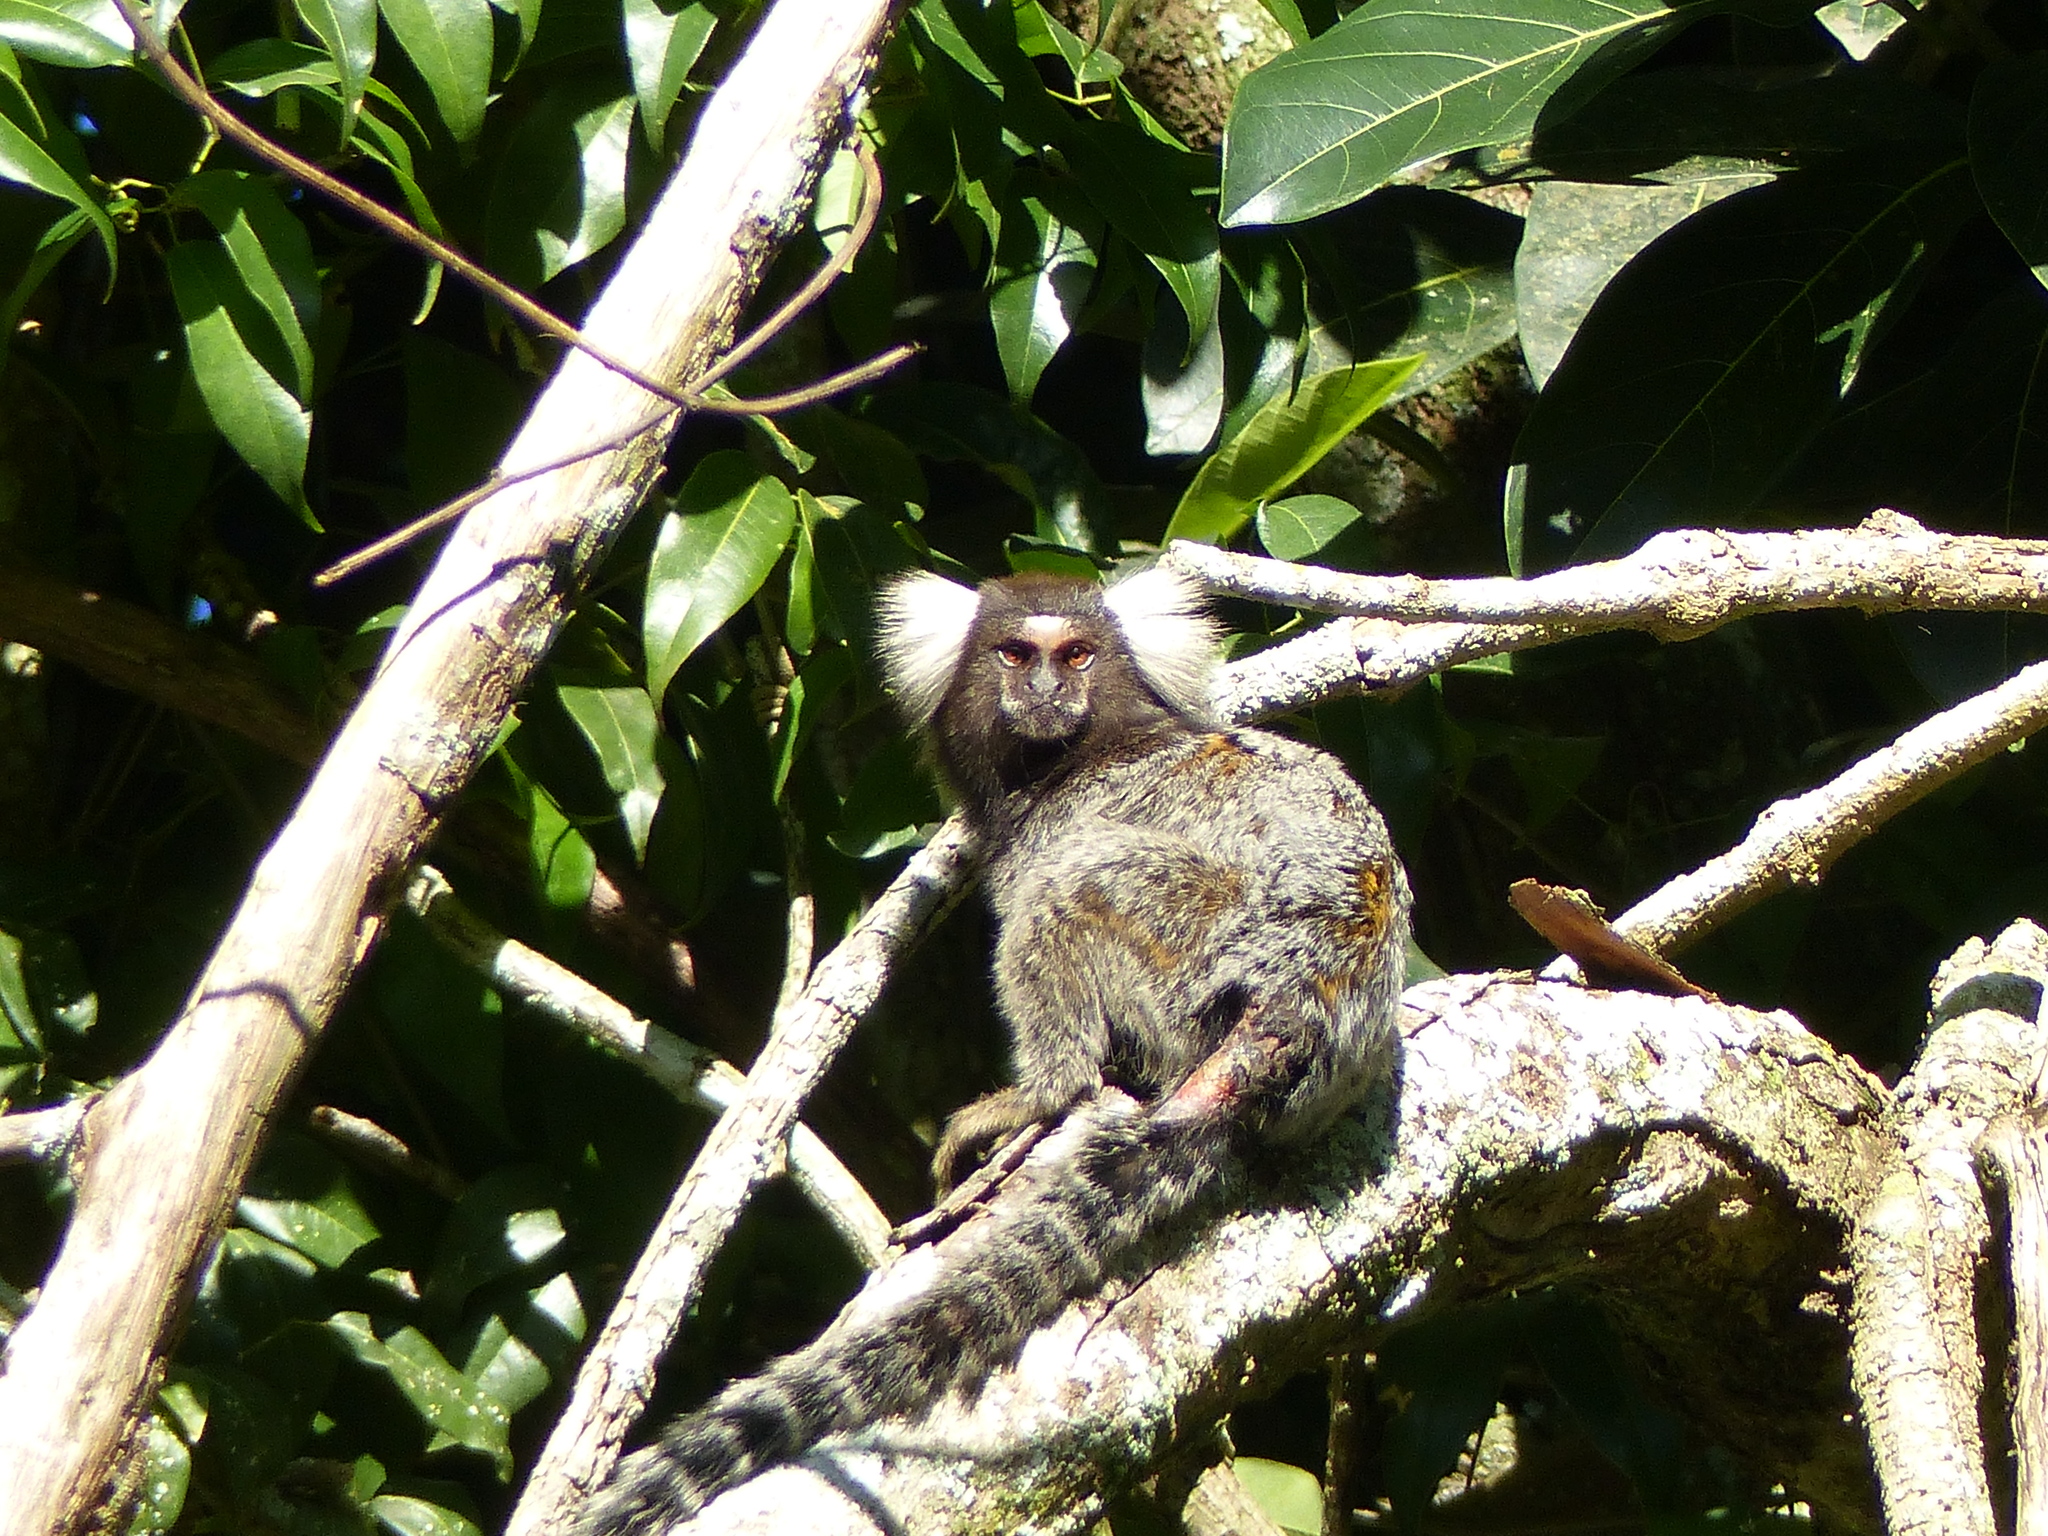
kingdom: Animalia
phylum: Chordata
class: Mammalia
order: Primates
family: Callitrichidae
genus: Callithrix
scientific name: Callithrix jacchus
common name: Common marmoset
